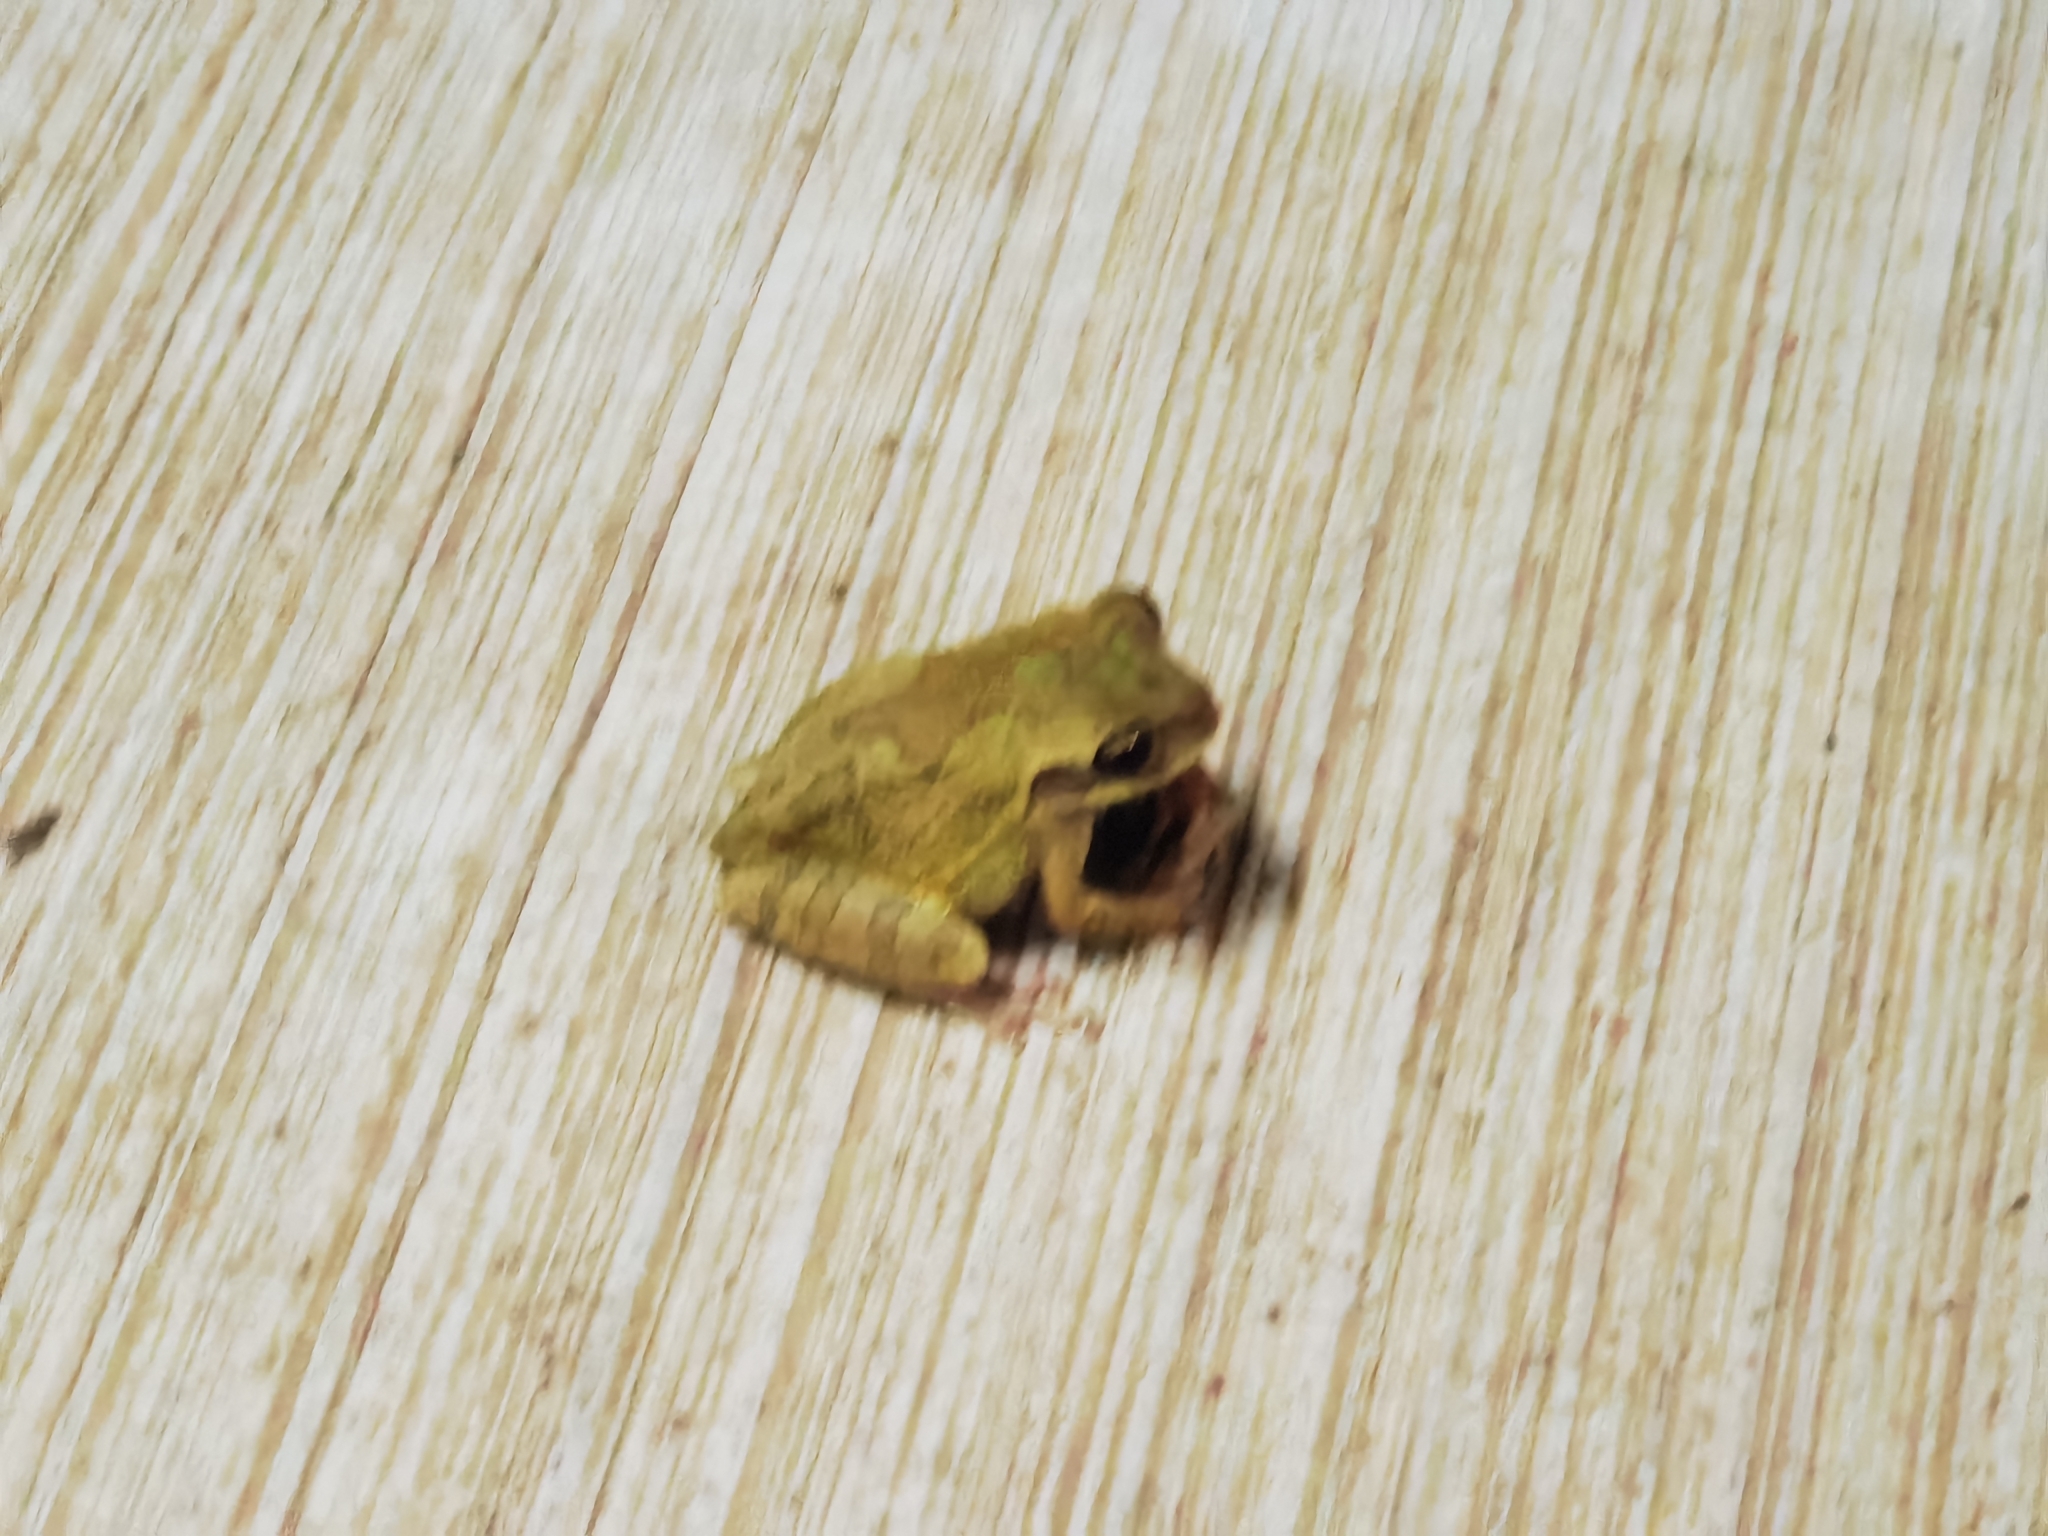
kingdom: Animalia
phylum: Chordata
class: Amphibia
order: Anura
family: Hylidae
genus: Smilisca
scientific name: Smilisca baudinii
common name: Mexican smilisca
